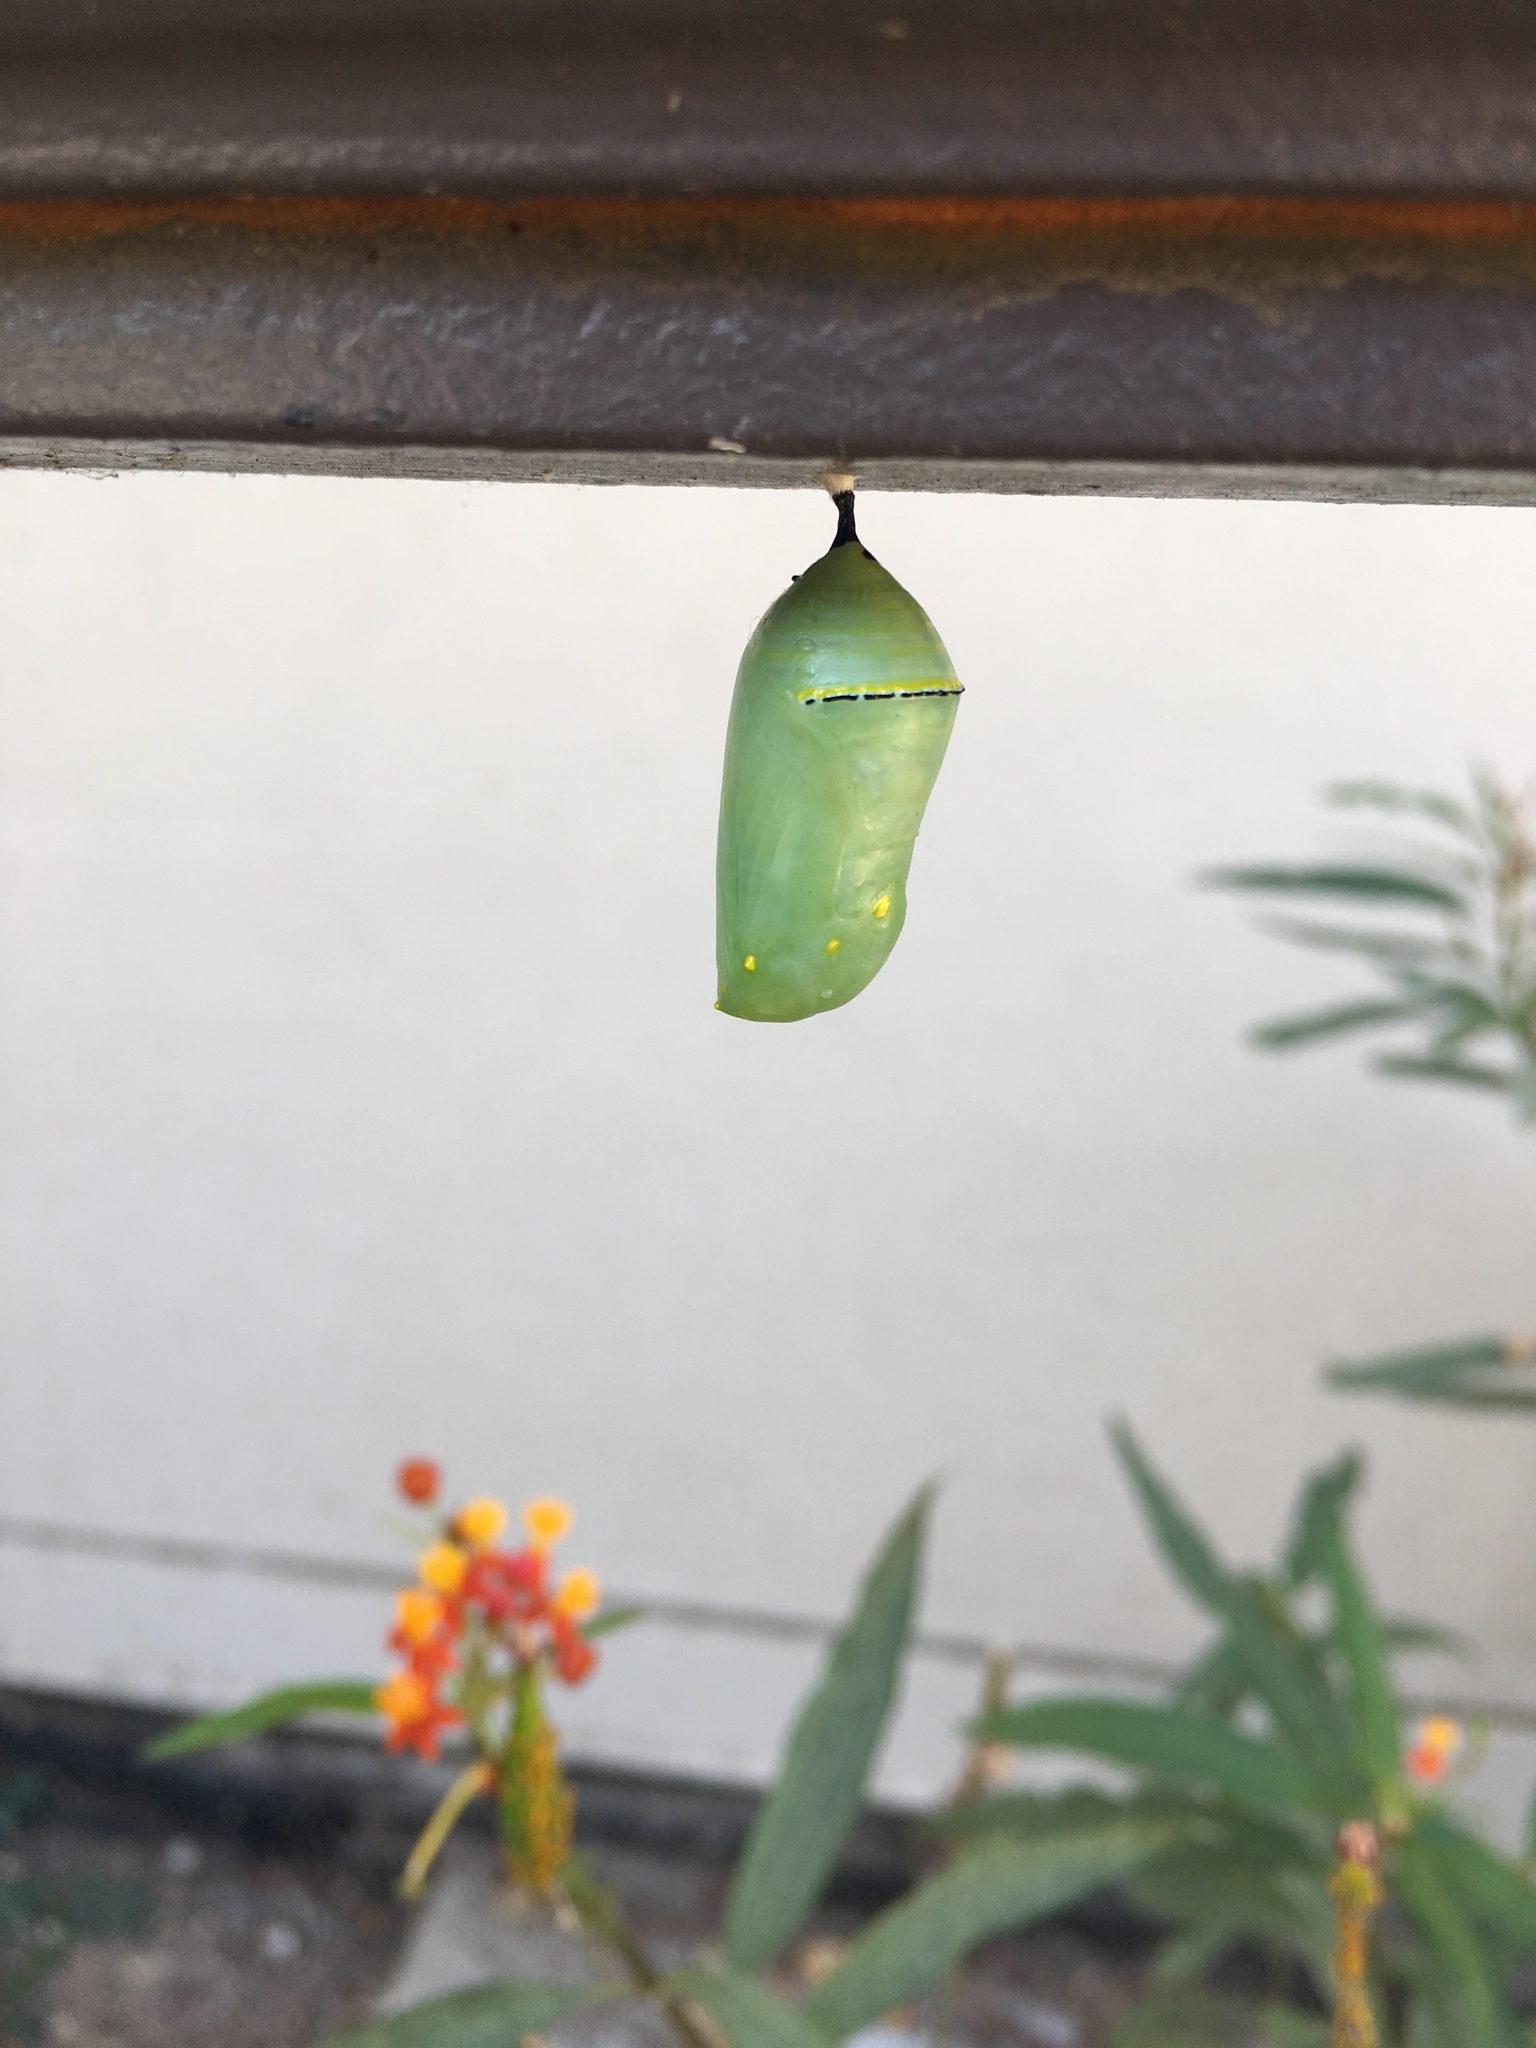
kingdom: Animalia
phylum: Arthropoda
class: Insecta
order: Lepidoptera
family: Nymphalidae
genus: Danaus
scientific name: Danaus plexippus
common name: Monarch
